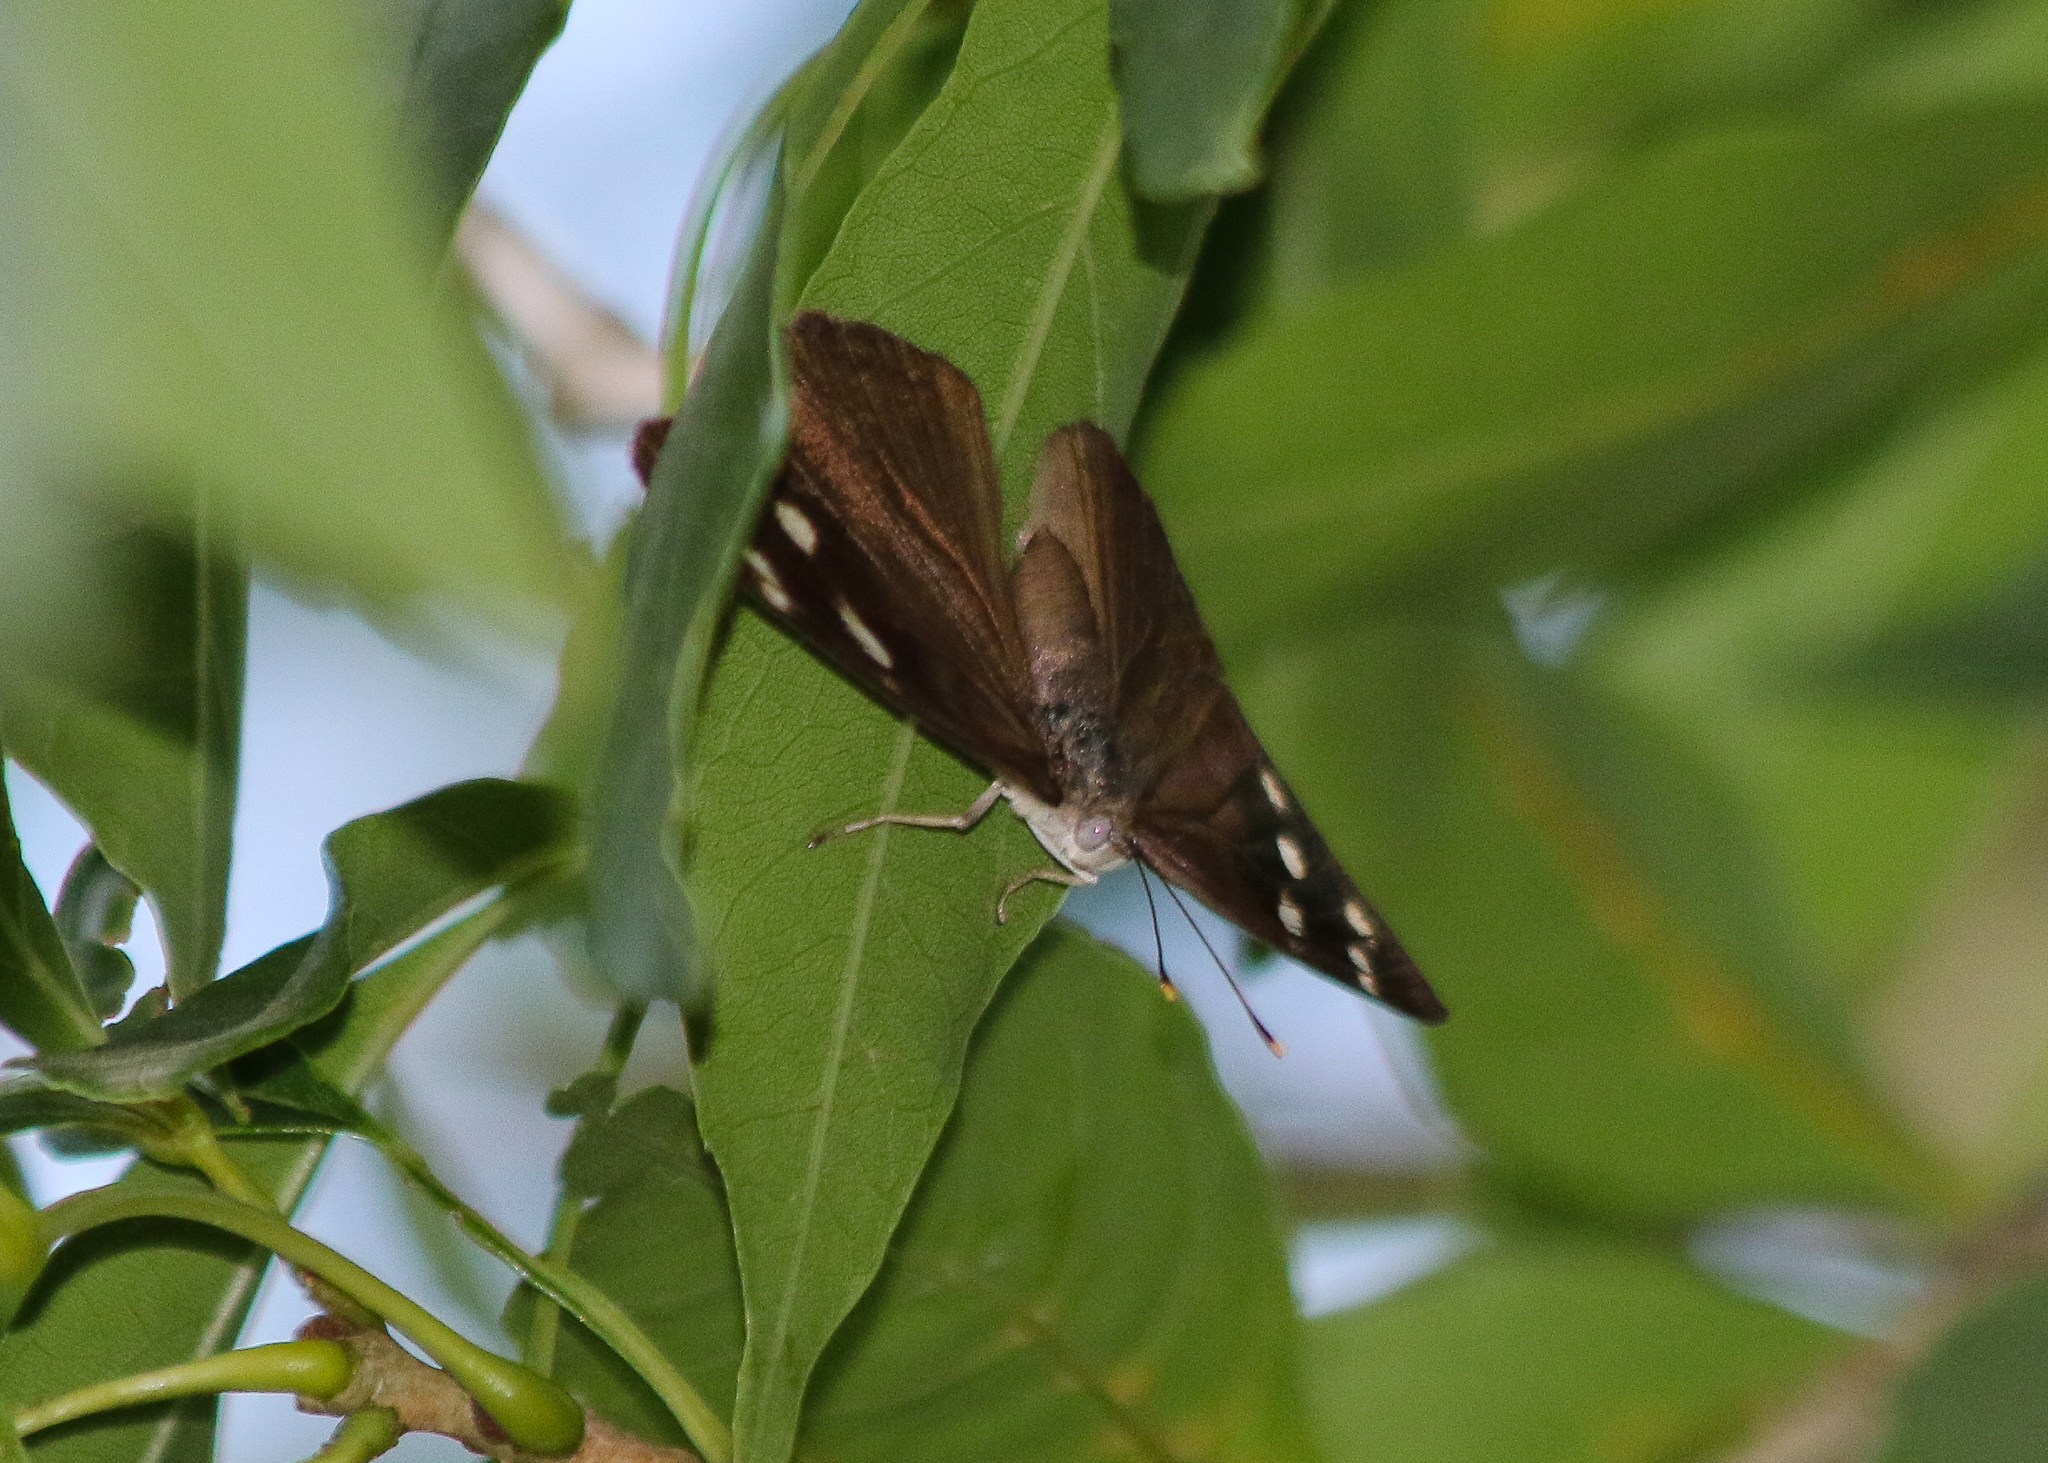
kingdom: Animalia
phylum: Arthropoda
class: Insecta
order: Lepidoptera
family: Nymphalidae
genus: Eunica
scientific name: Eunica monima
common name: Dingy purplewing
